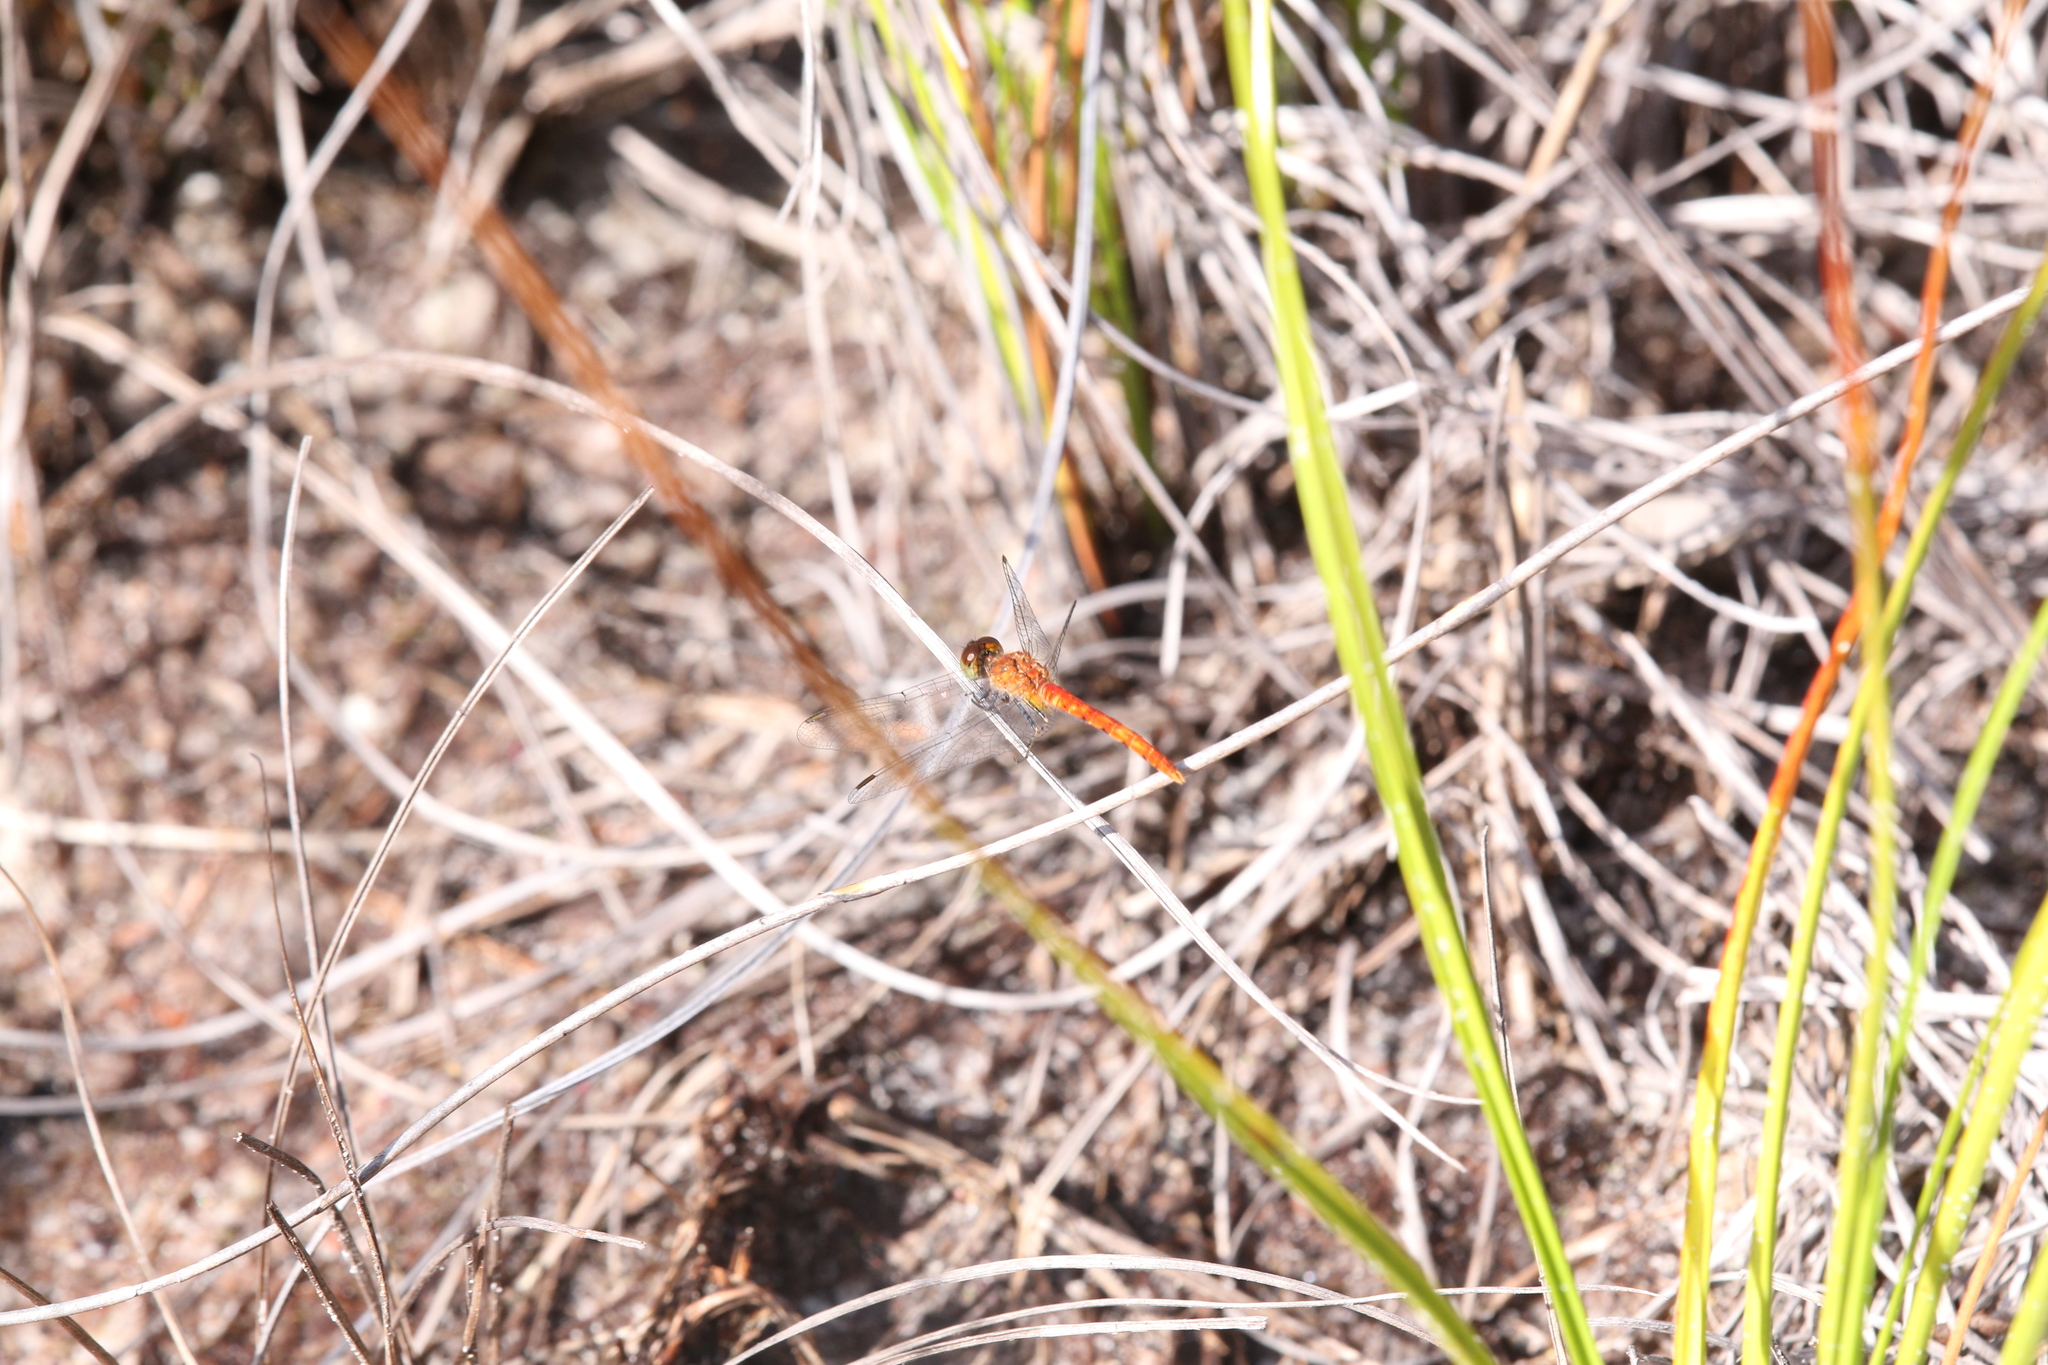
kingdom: Animalia
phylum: Arthropoda
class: Insecta
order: Odonata
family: Libellulidae
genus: Nannodiplax
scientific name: Nannodiplax rubra
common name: Pygmy percher
